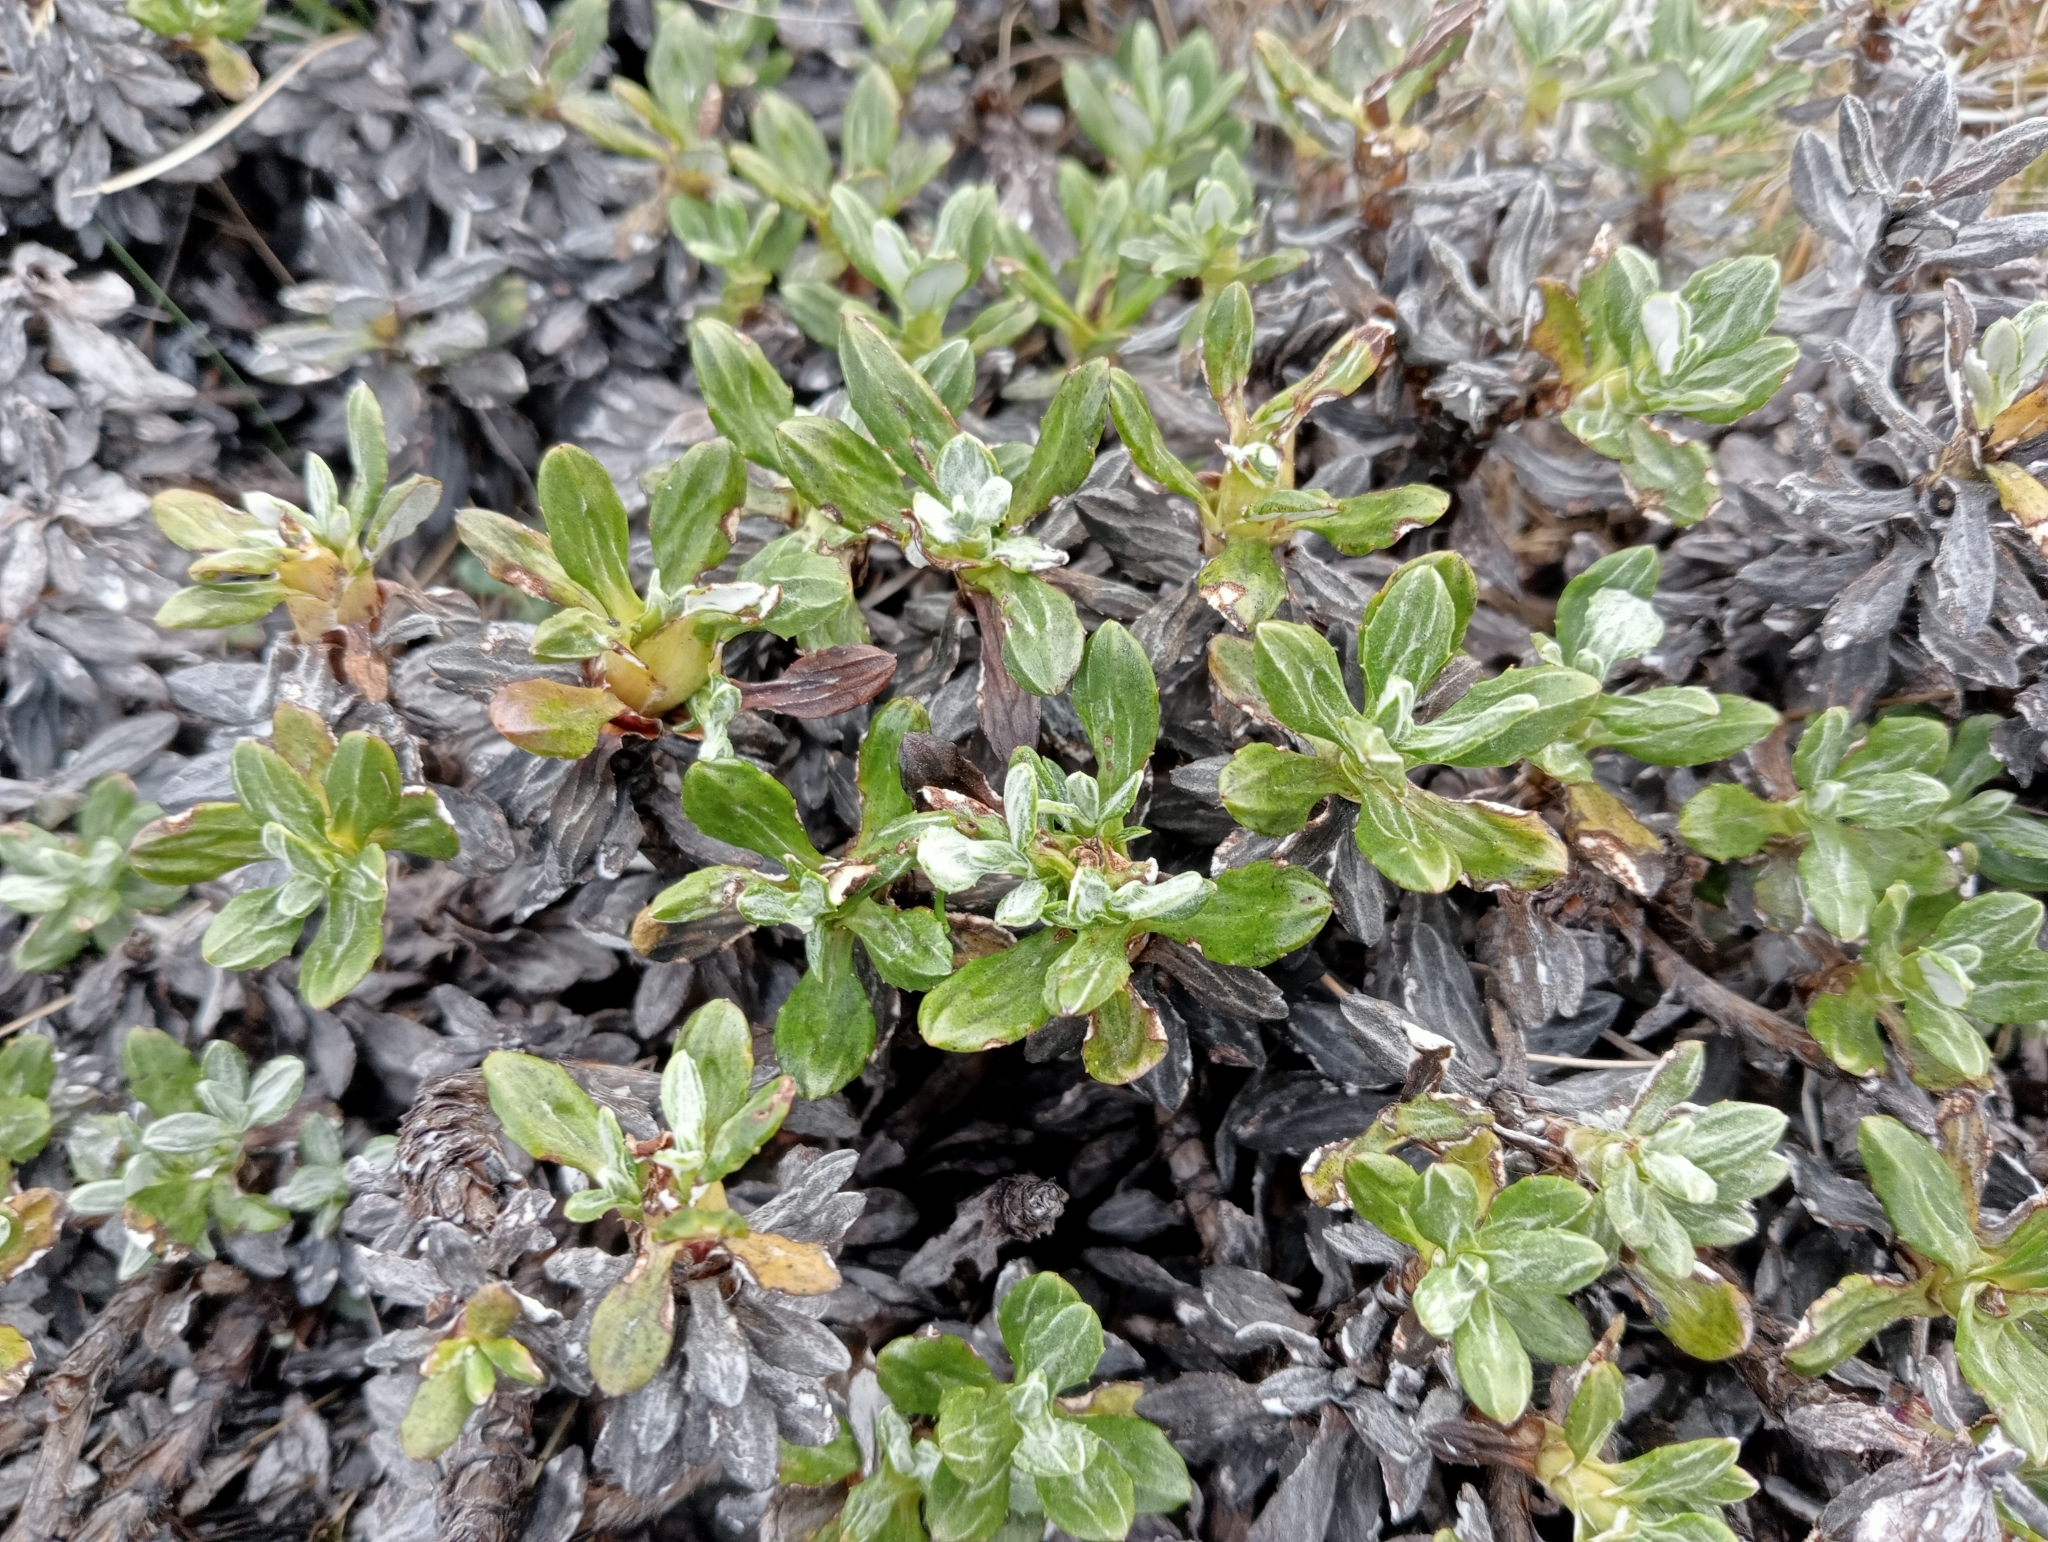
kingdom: Plantae
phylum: Tracheophyta
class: Magnoliopsida
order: Asterales
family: Asteraceae
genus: Celmisia
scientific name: Celmisia brevifolia
